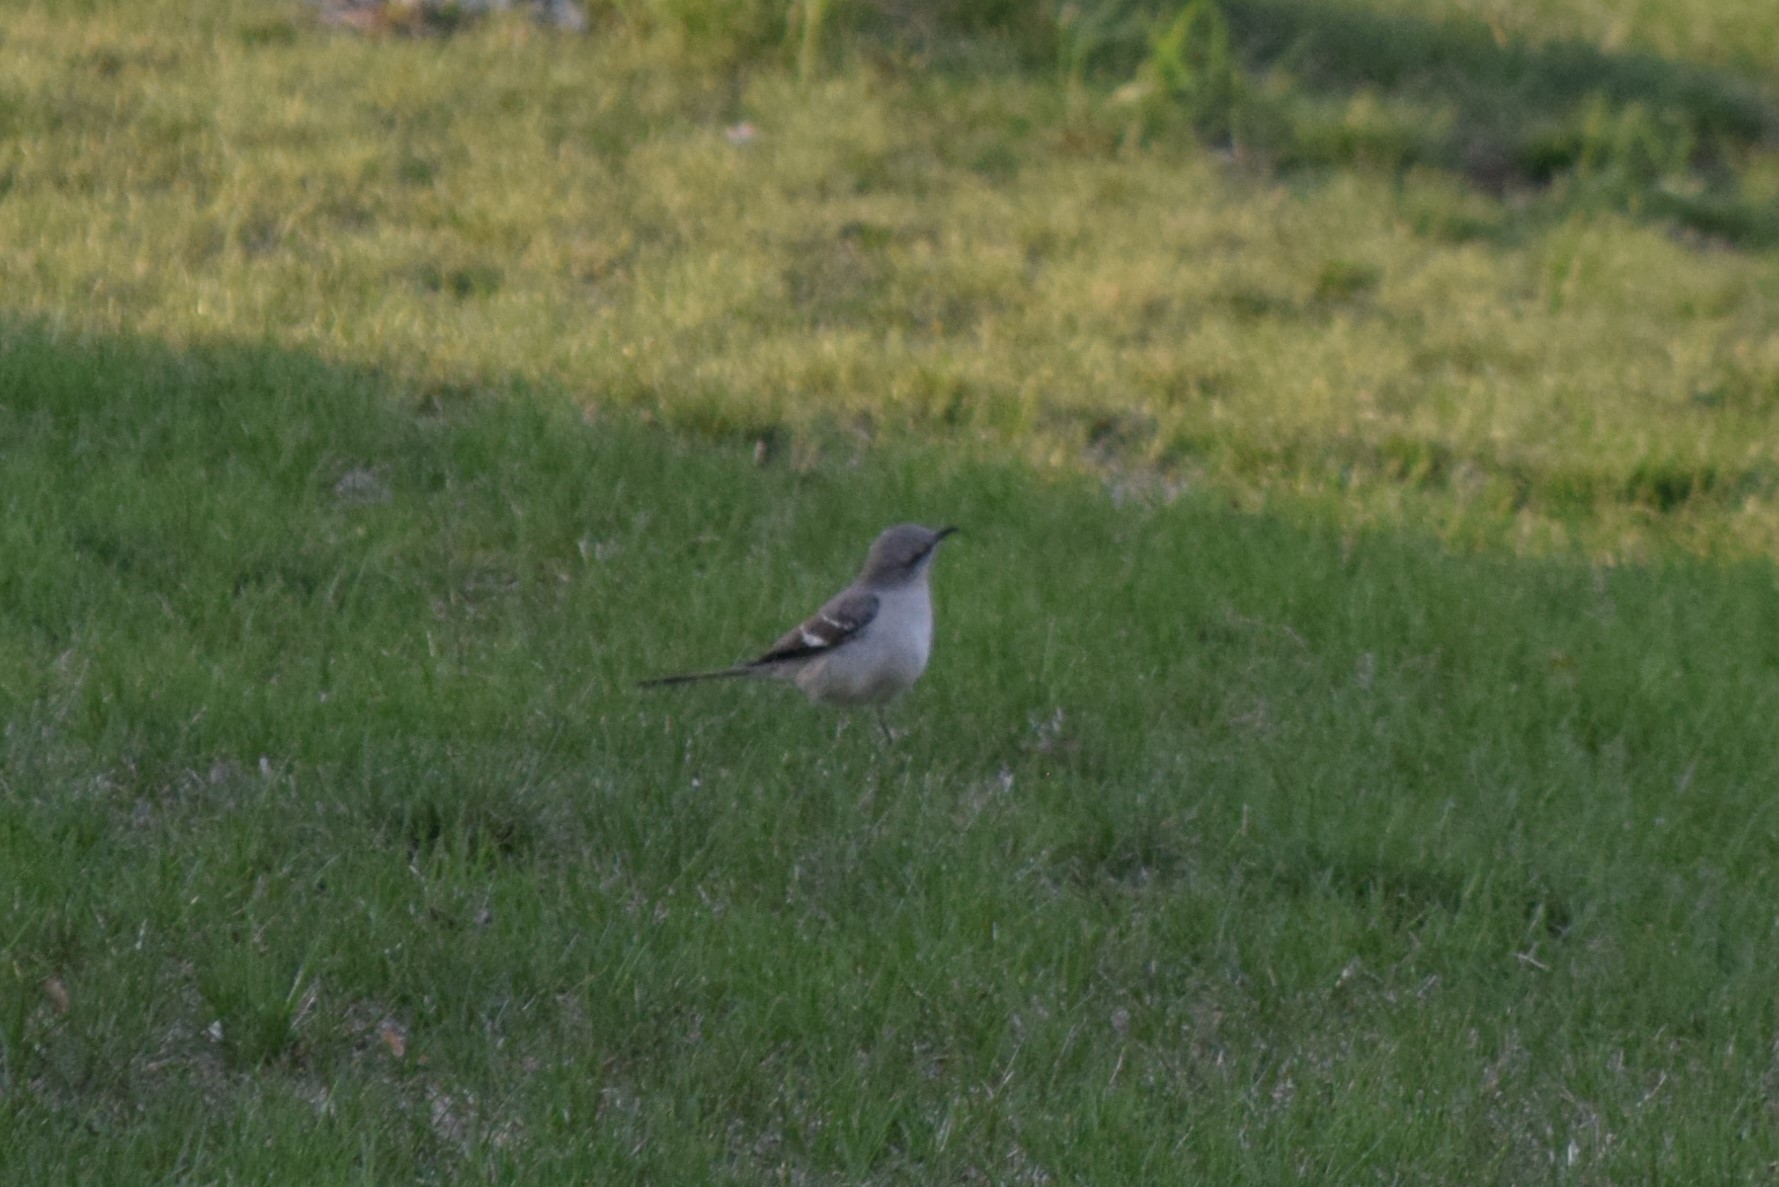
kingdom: Animalia
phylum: Chordata
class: Aves
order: Passeriformes
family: Mimidae
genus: Mimus
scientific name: Mimus polyglottos
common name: Northern mockingbird
